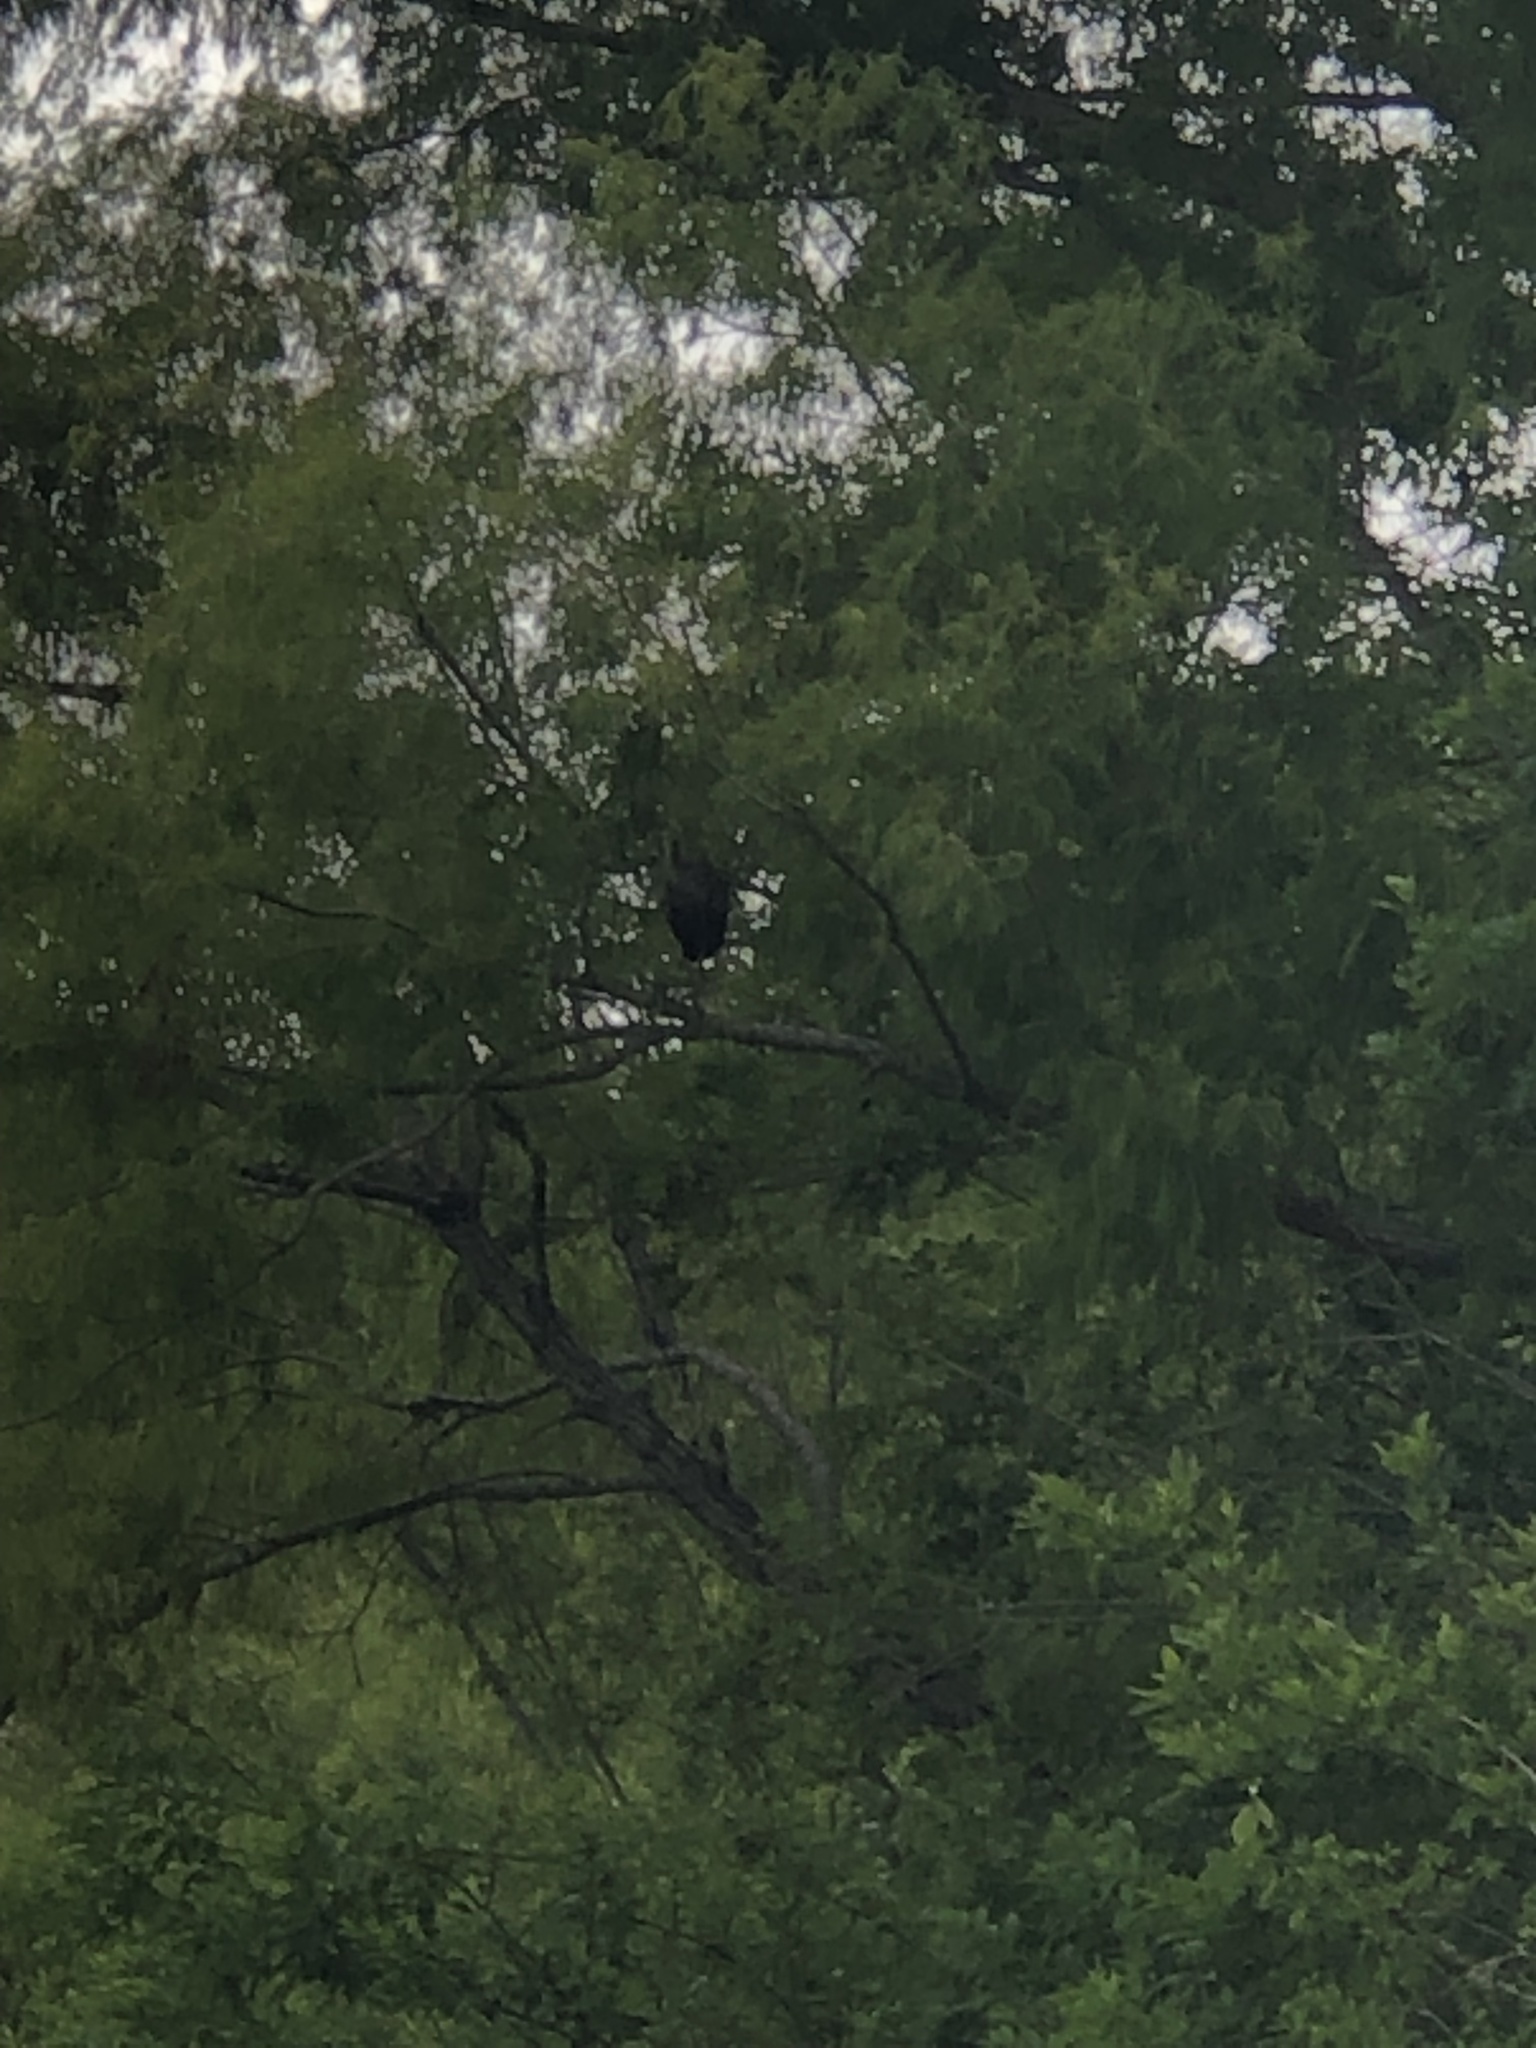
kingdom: Animalia
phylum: Chordata
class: Aves
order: Gruiformes
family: Aramidae
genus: Aramus
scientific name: Aramus guarauna
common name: Limpkin
